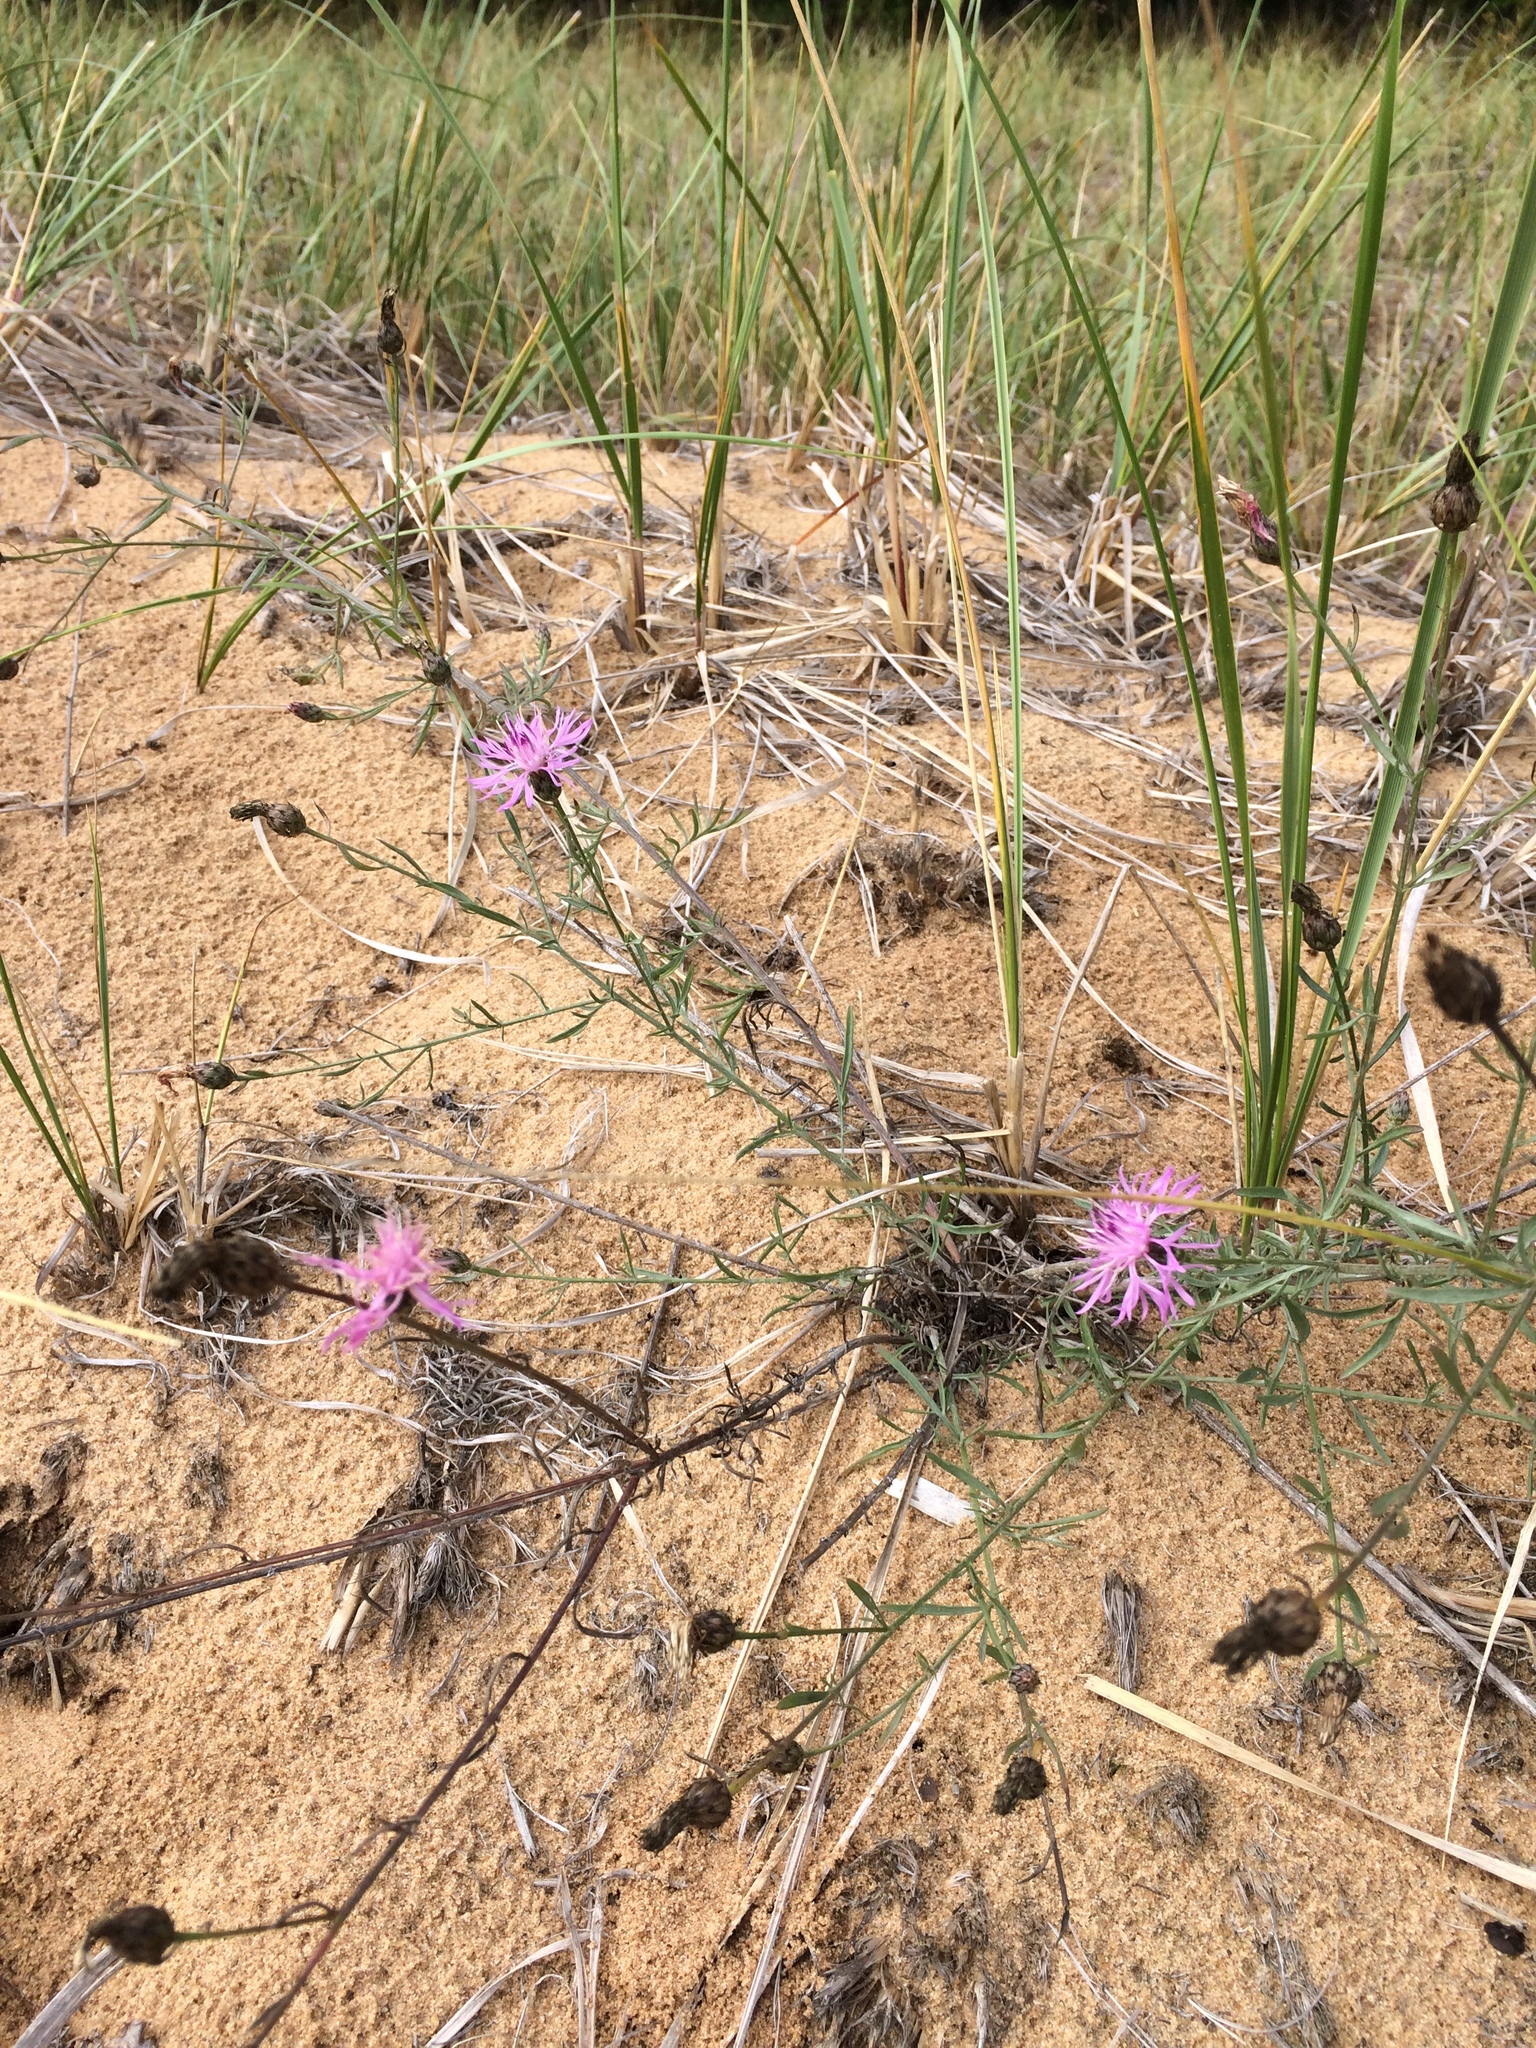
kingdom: Plantae
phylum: Tracheophyta
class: Magnoliopsida
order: Asterales
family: Asteraceae
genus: Centaurea
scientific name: Centaurea stoebe
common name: Spotted knapweed
